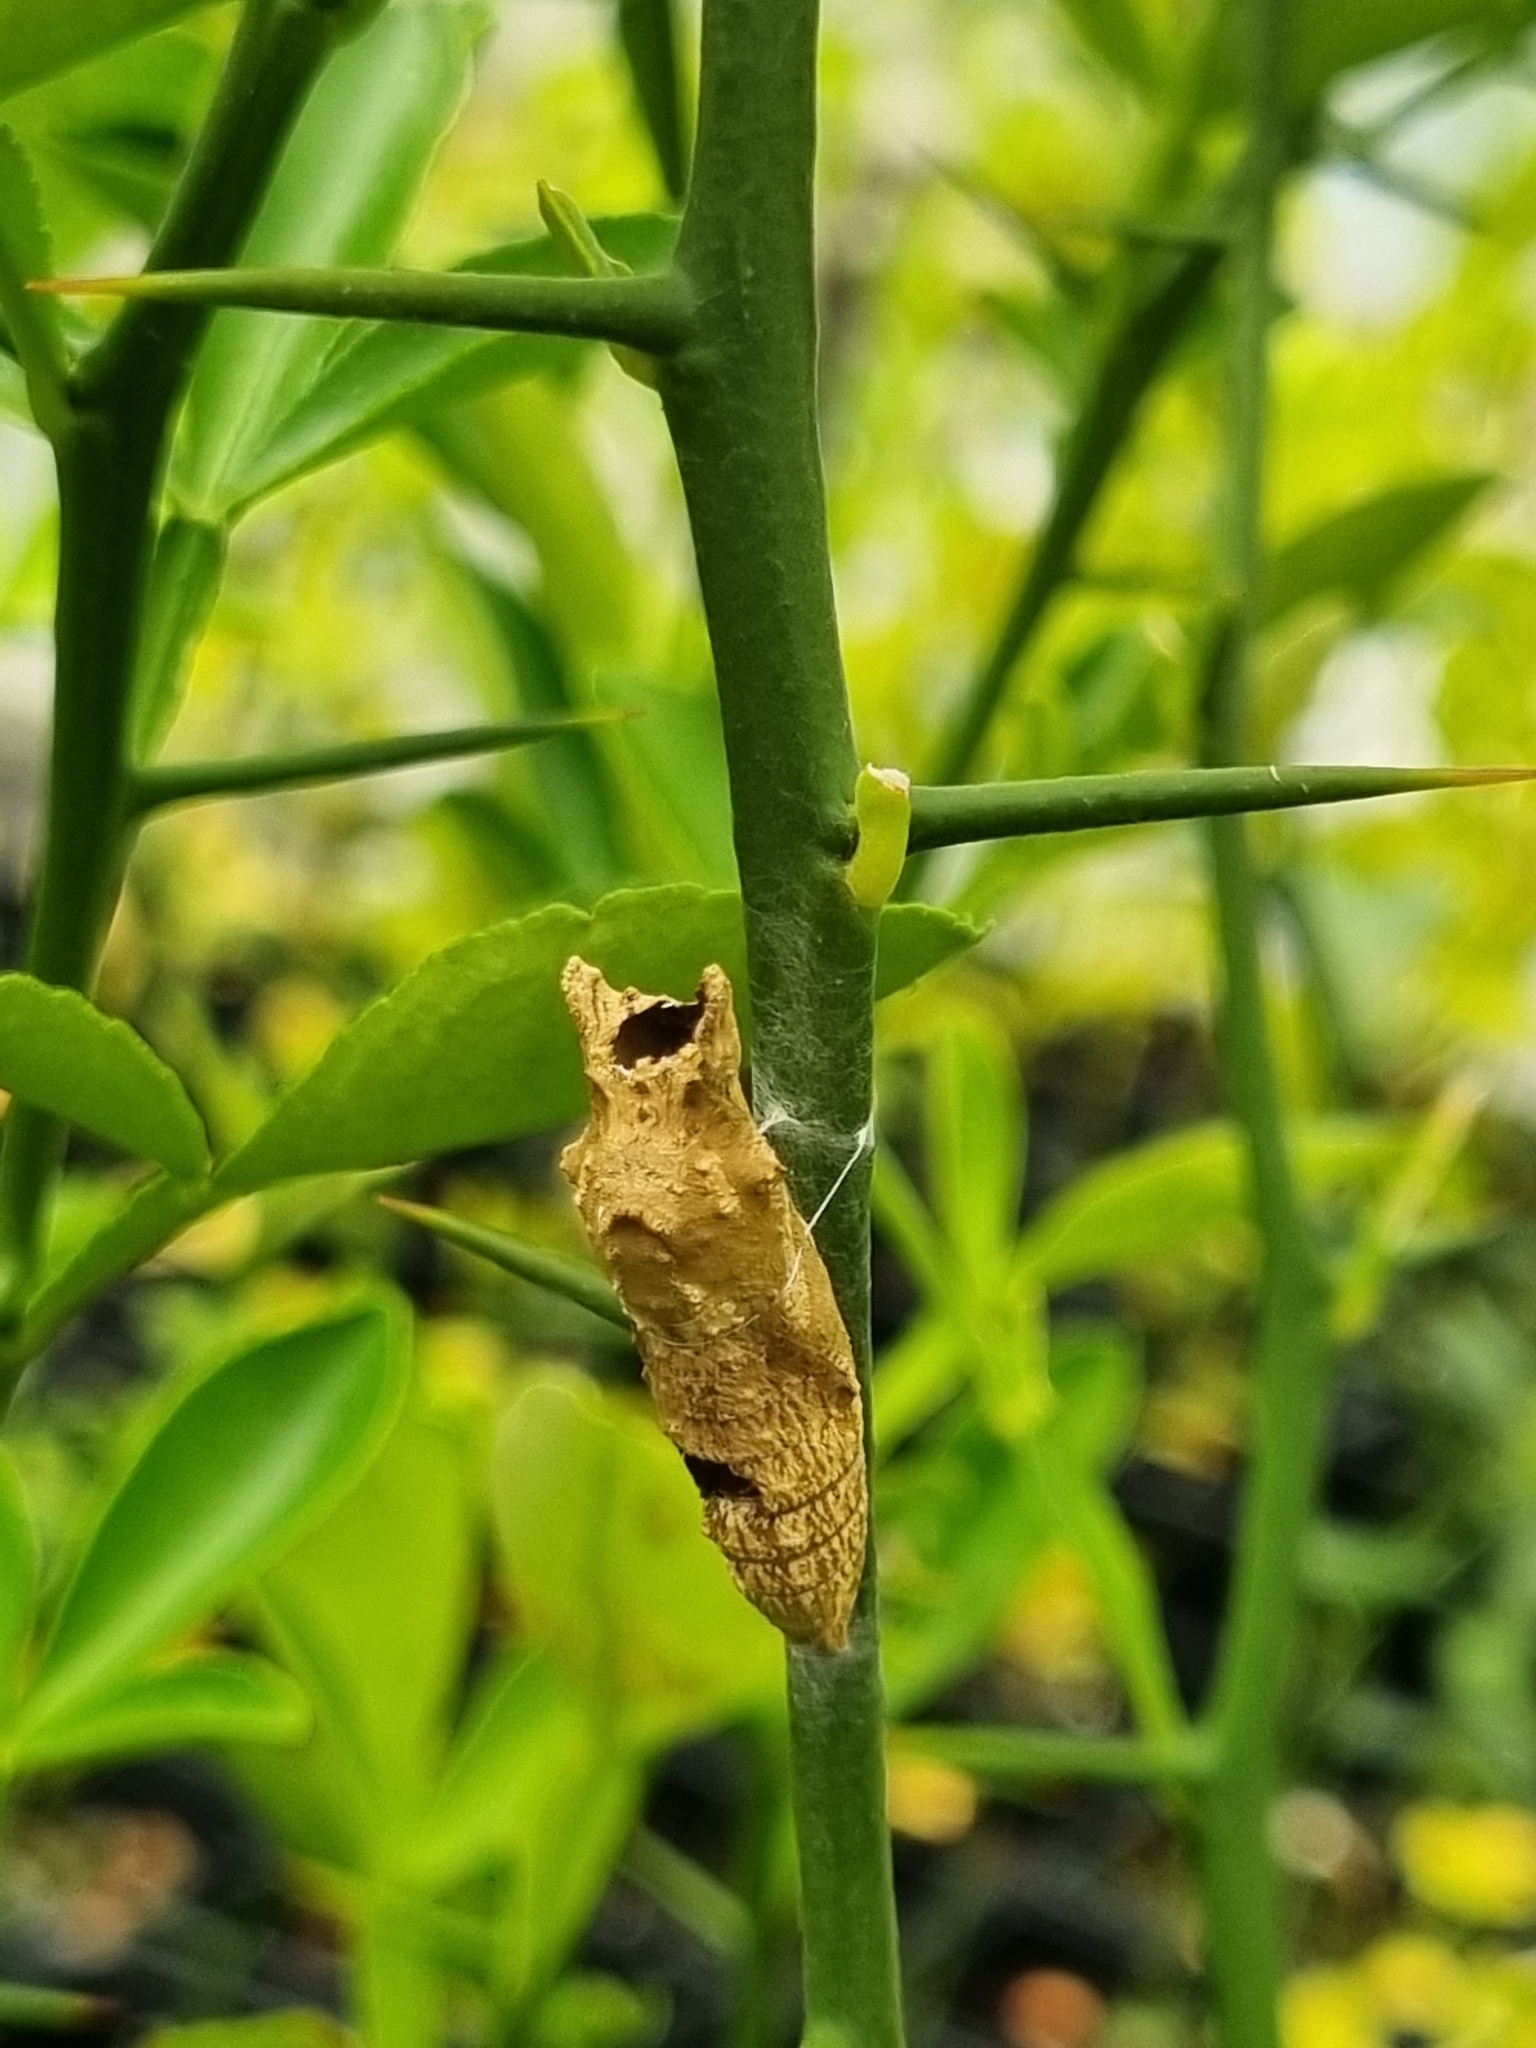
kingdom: Animalia
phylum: Arthropoda
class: Insecta
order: Lepidoptera
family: Papilionidae
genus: Papilio
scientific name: Papilio anactus
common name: Dingy swallowtail
